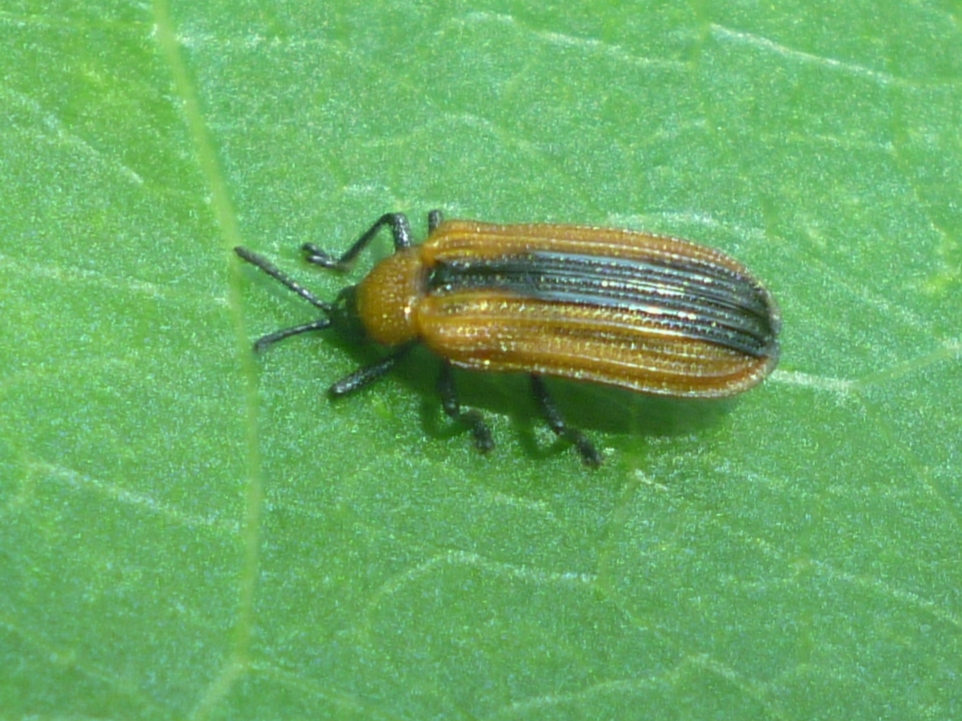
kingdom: Animalia
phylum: Arthropoda
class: Insecta
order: Coleoptera
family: Chrysomelidae
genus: Odontota
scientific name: Odontota dorsalis
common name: Locust leaf-miner beetle
